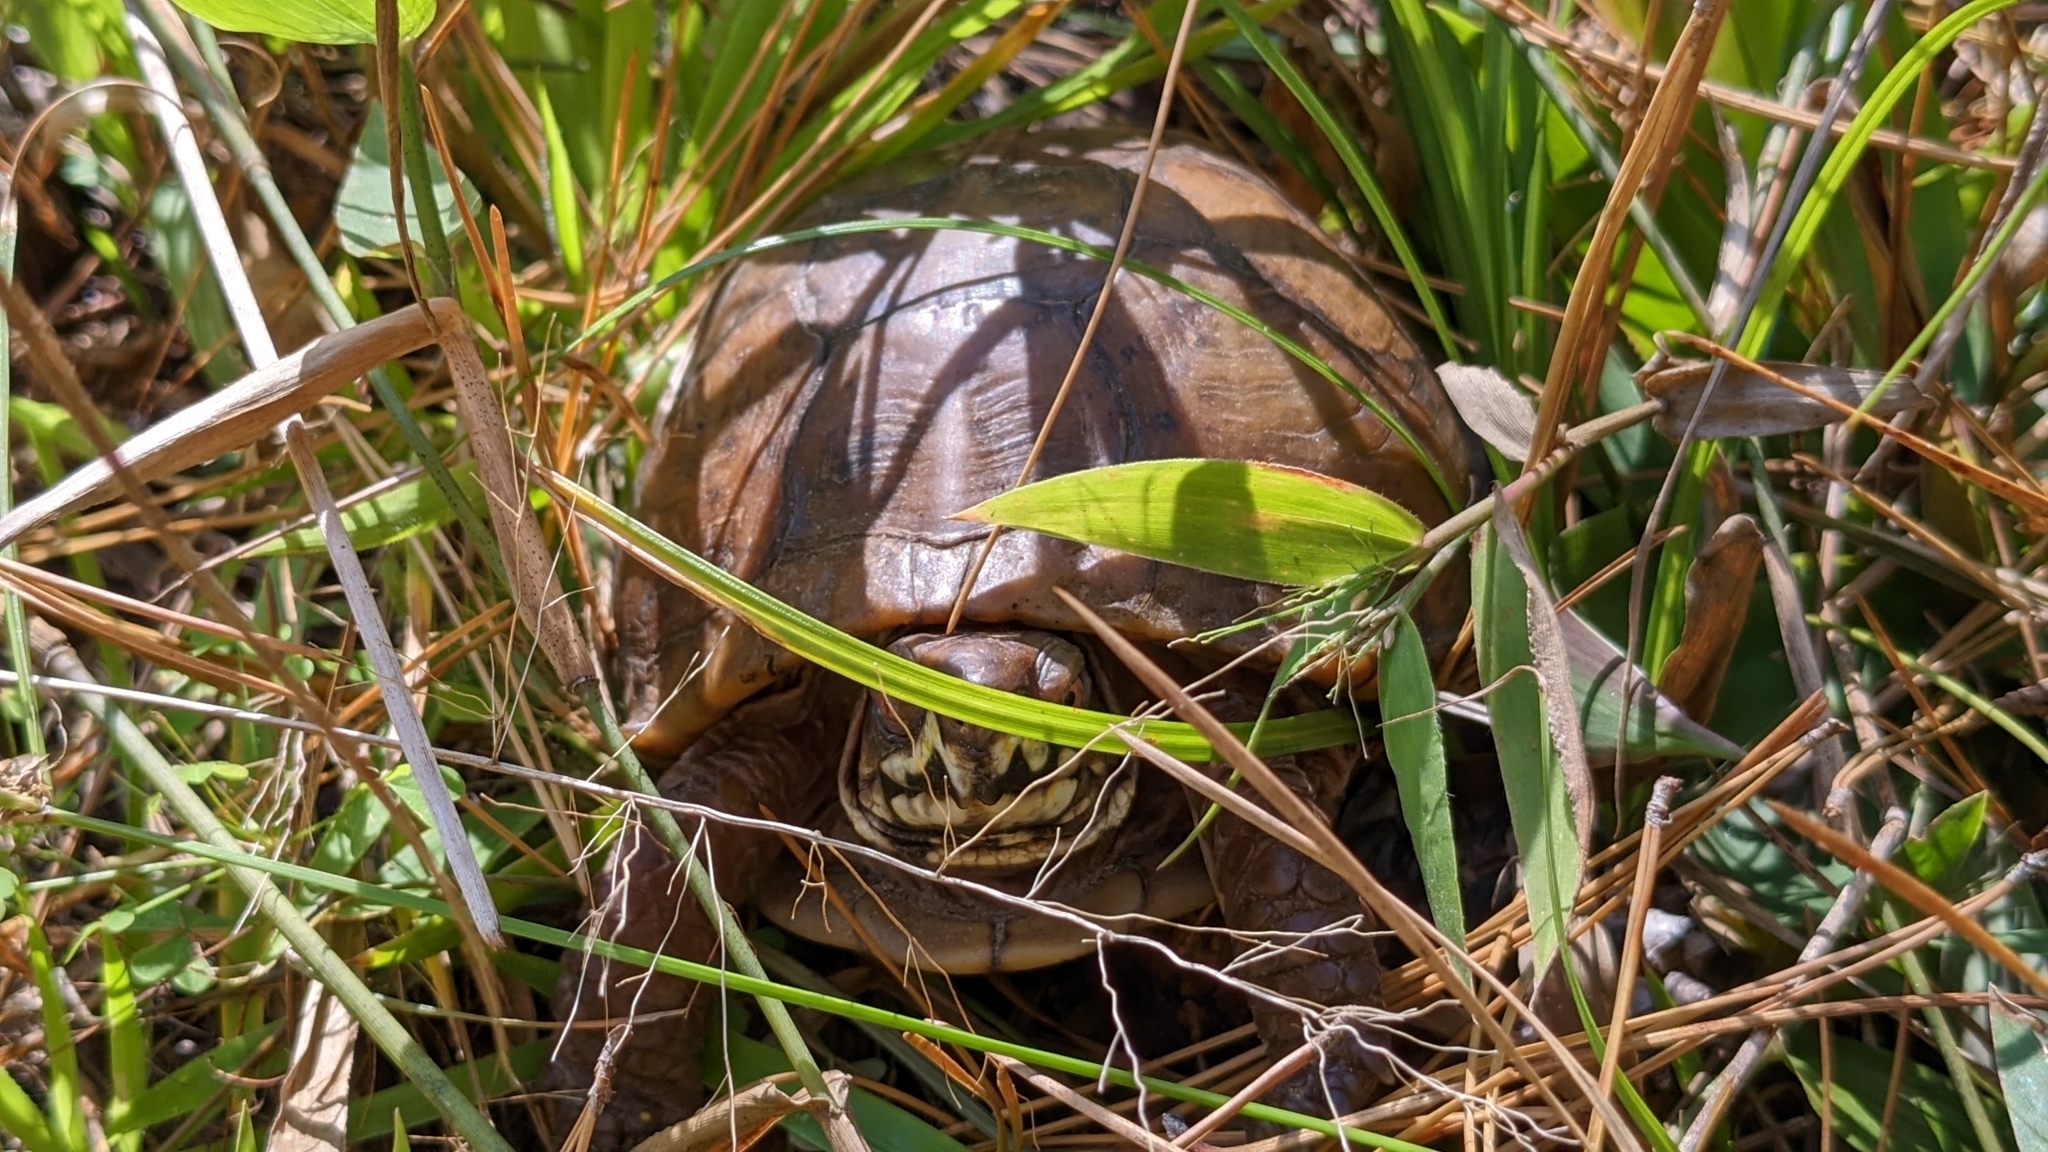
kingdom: Animalia
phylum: Chordata
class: Testudines
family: Emydidae
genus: Terrapene
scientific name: Terrapene carolina
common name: Common box turtle
